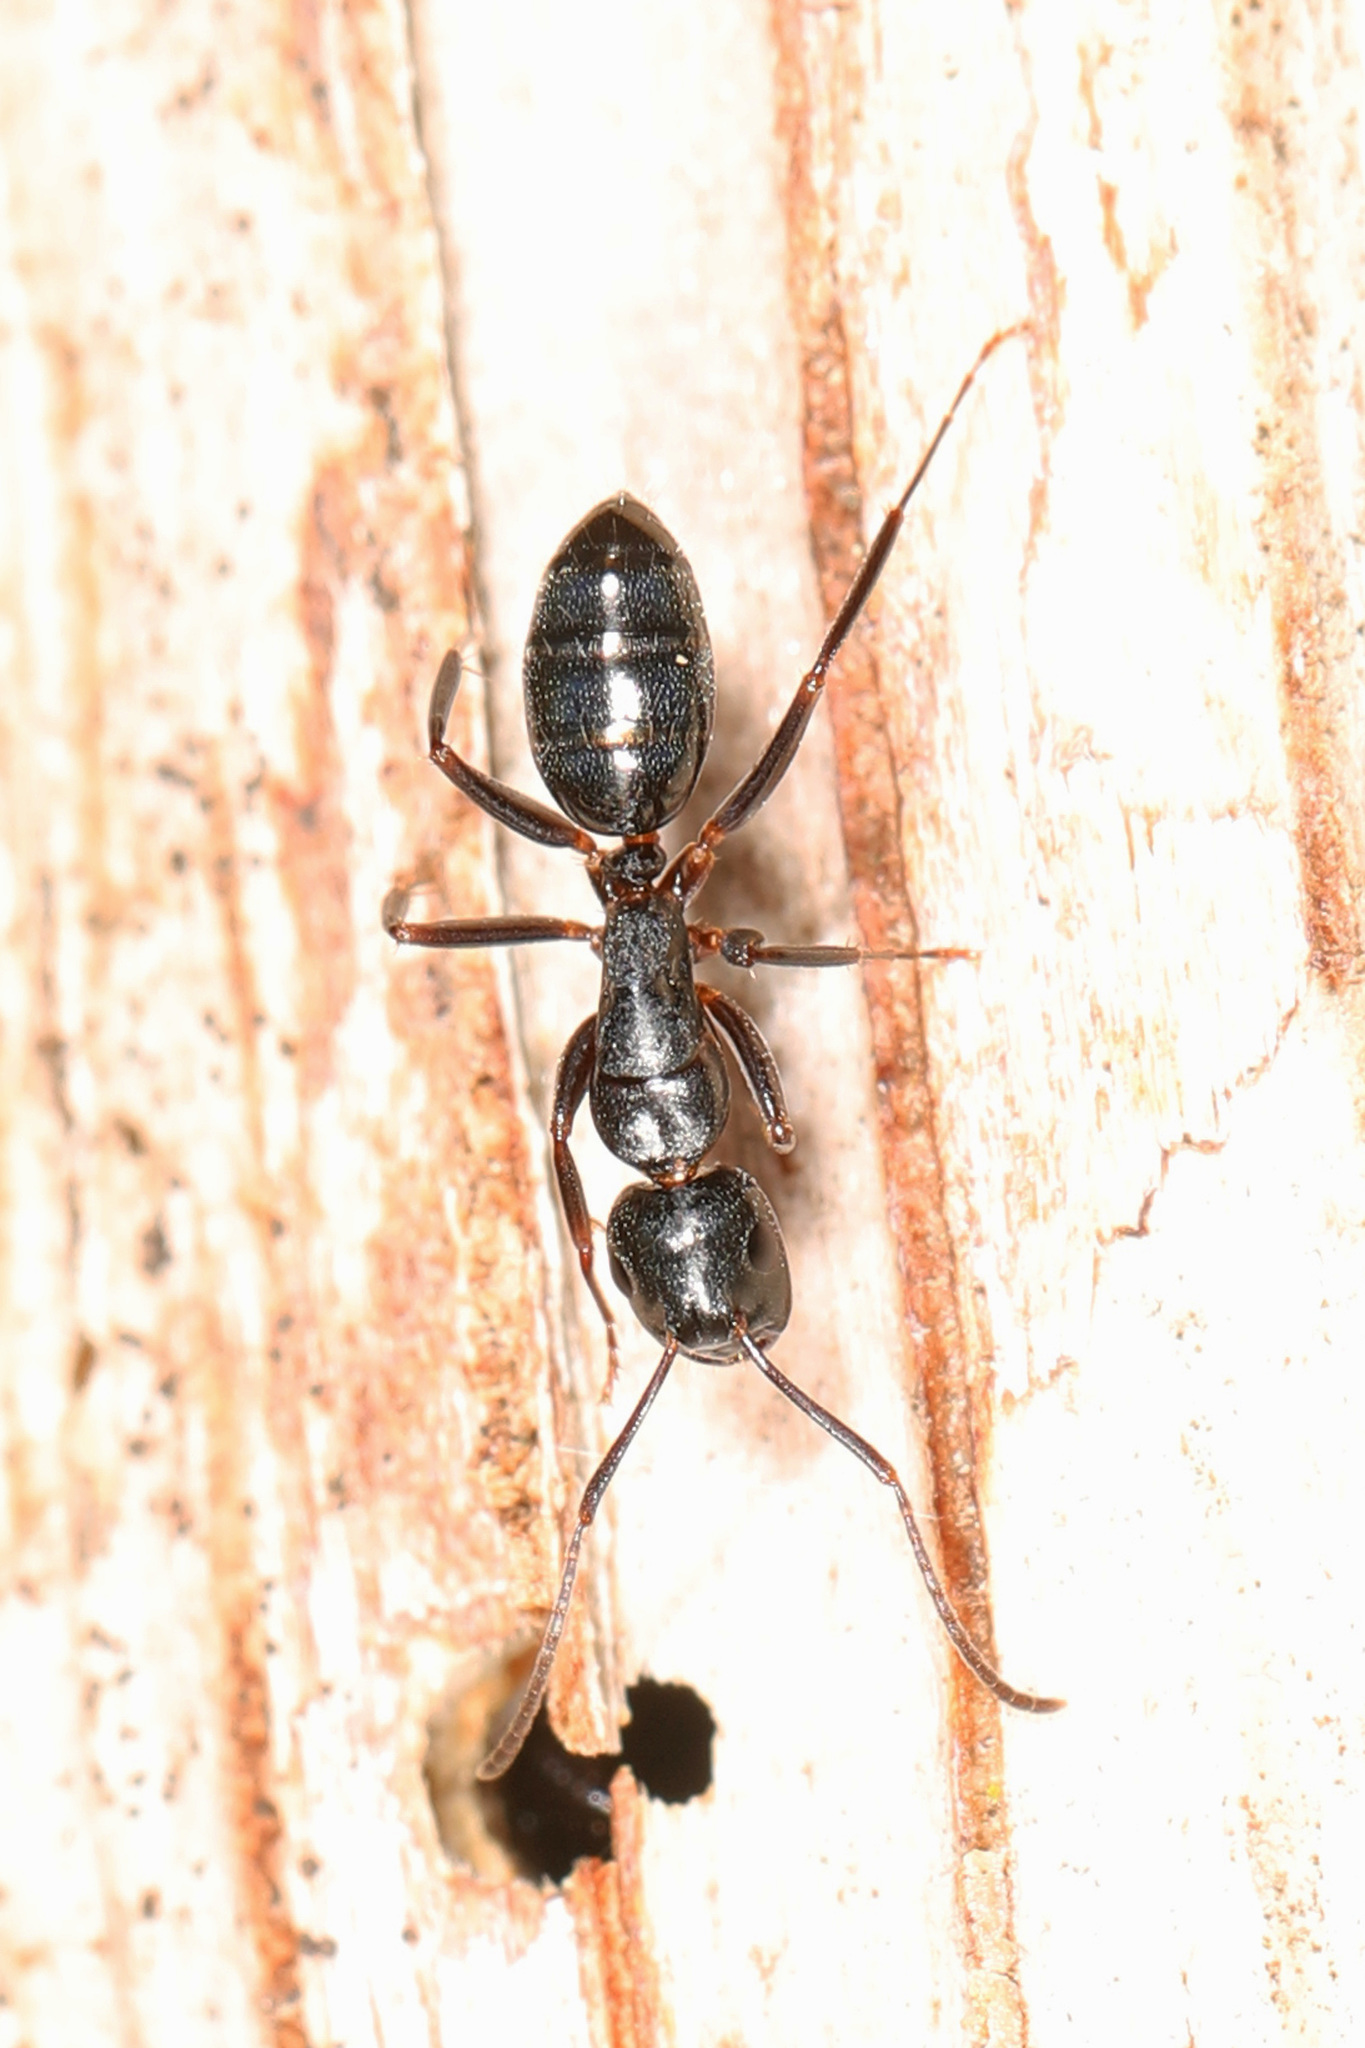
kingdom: Animalia
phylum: Arthropoda
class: Insecta
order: Hymenoptera
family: Formicidae
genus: Camponotus
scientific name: Camponotus nearcticus
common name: Smaller carpenter ant
